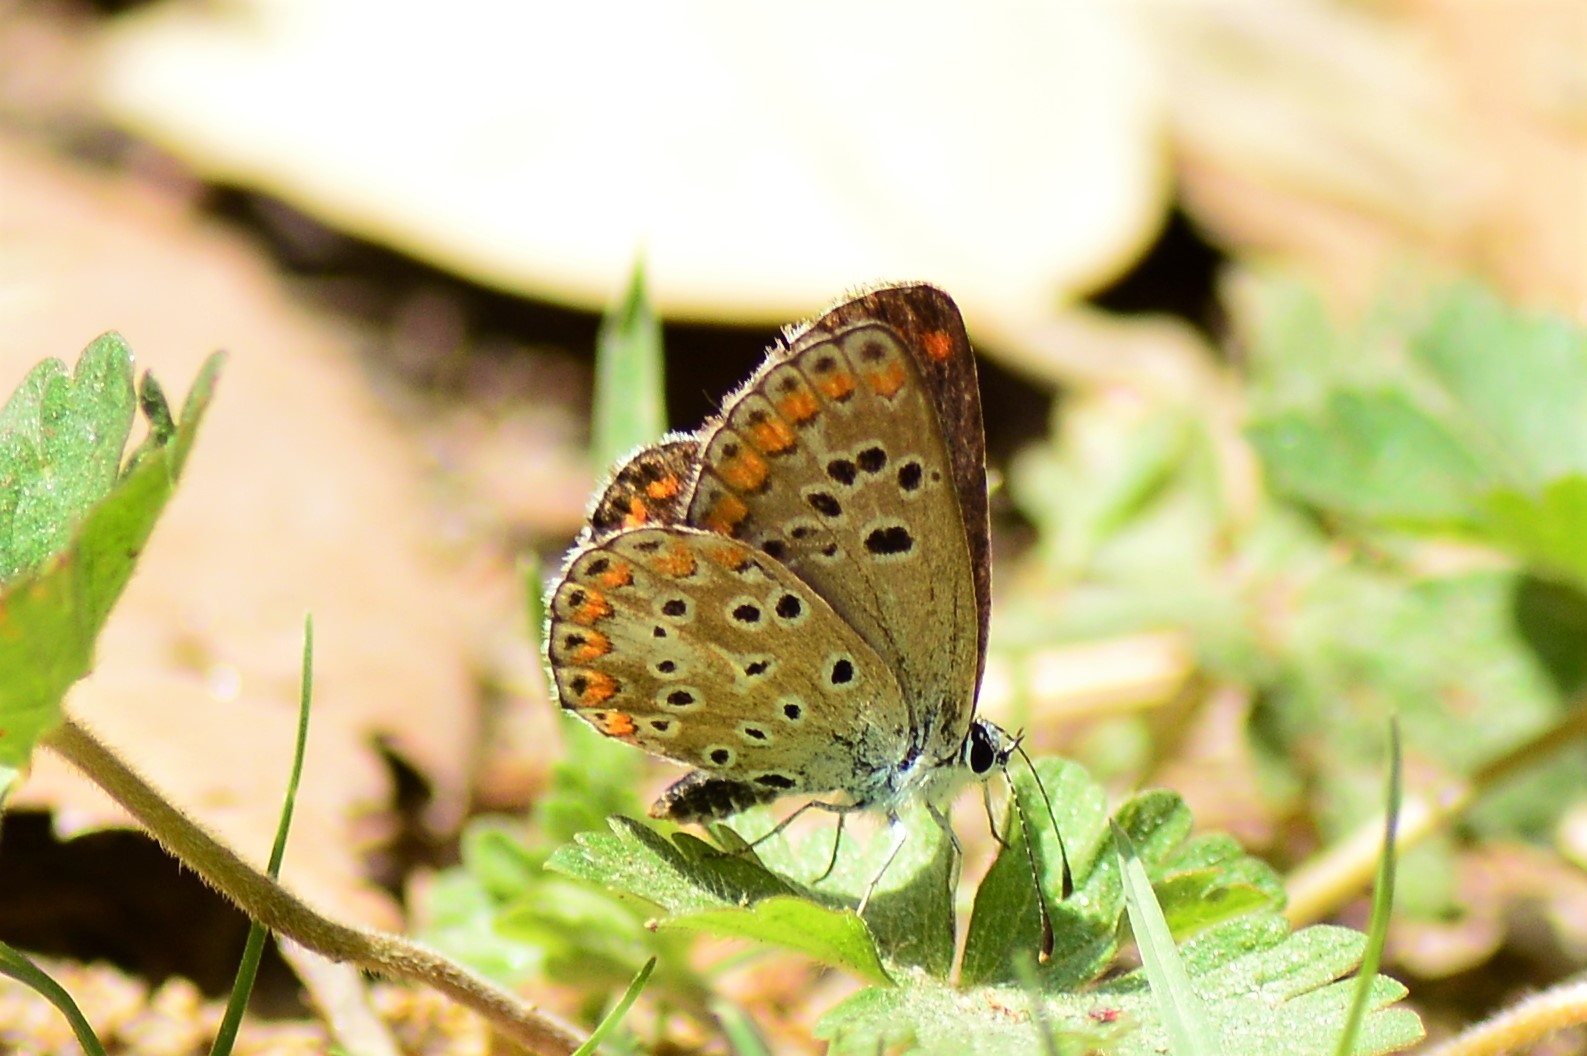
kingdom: Animalia
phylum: Arthropoda
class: Insecta
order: Lepidoptera
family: Lycaenidae
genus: Aricia
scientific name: Aricia agestis
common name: Brown argus
